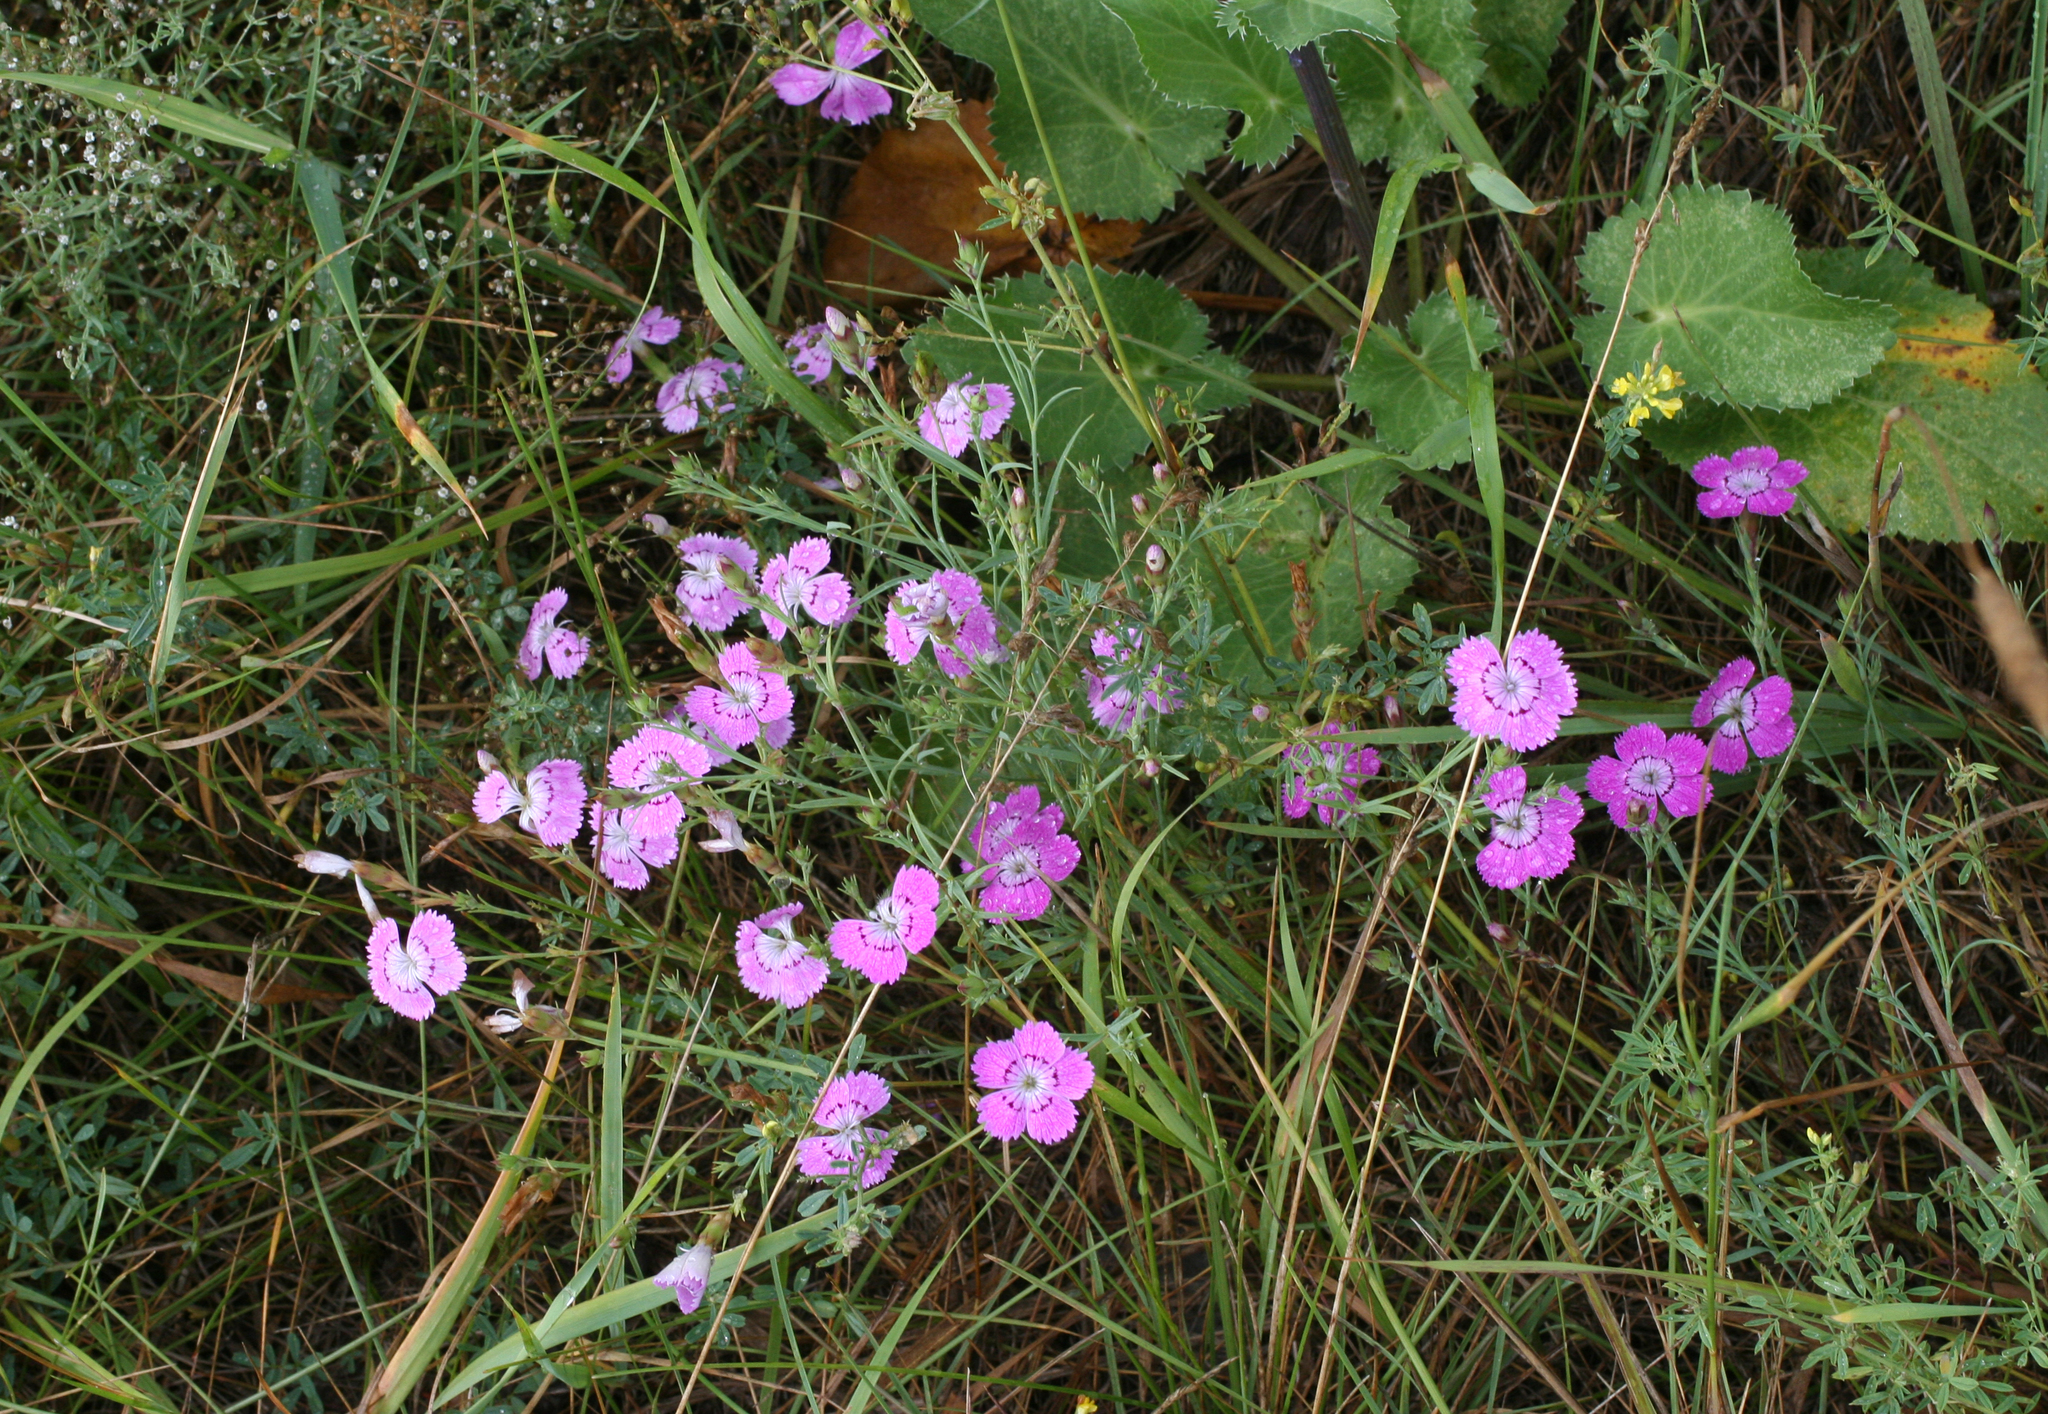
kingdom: Plantae
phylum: Tracheophyta
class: Magnoliopsida
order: Caryophyllales
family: Caryophyllaceae
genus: Dianthus
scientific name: Dianthus chinensis
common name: Rainbow pink
